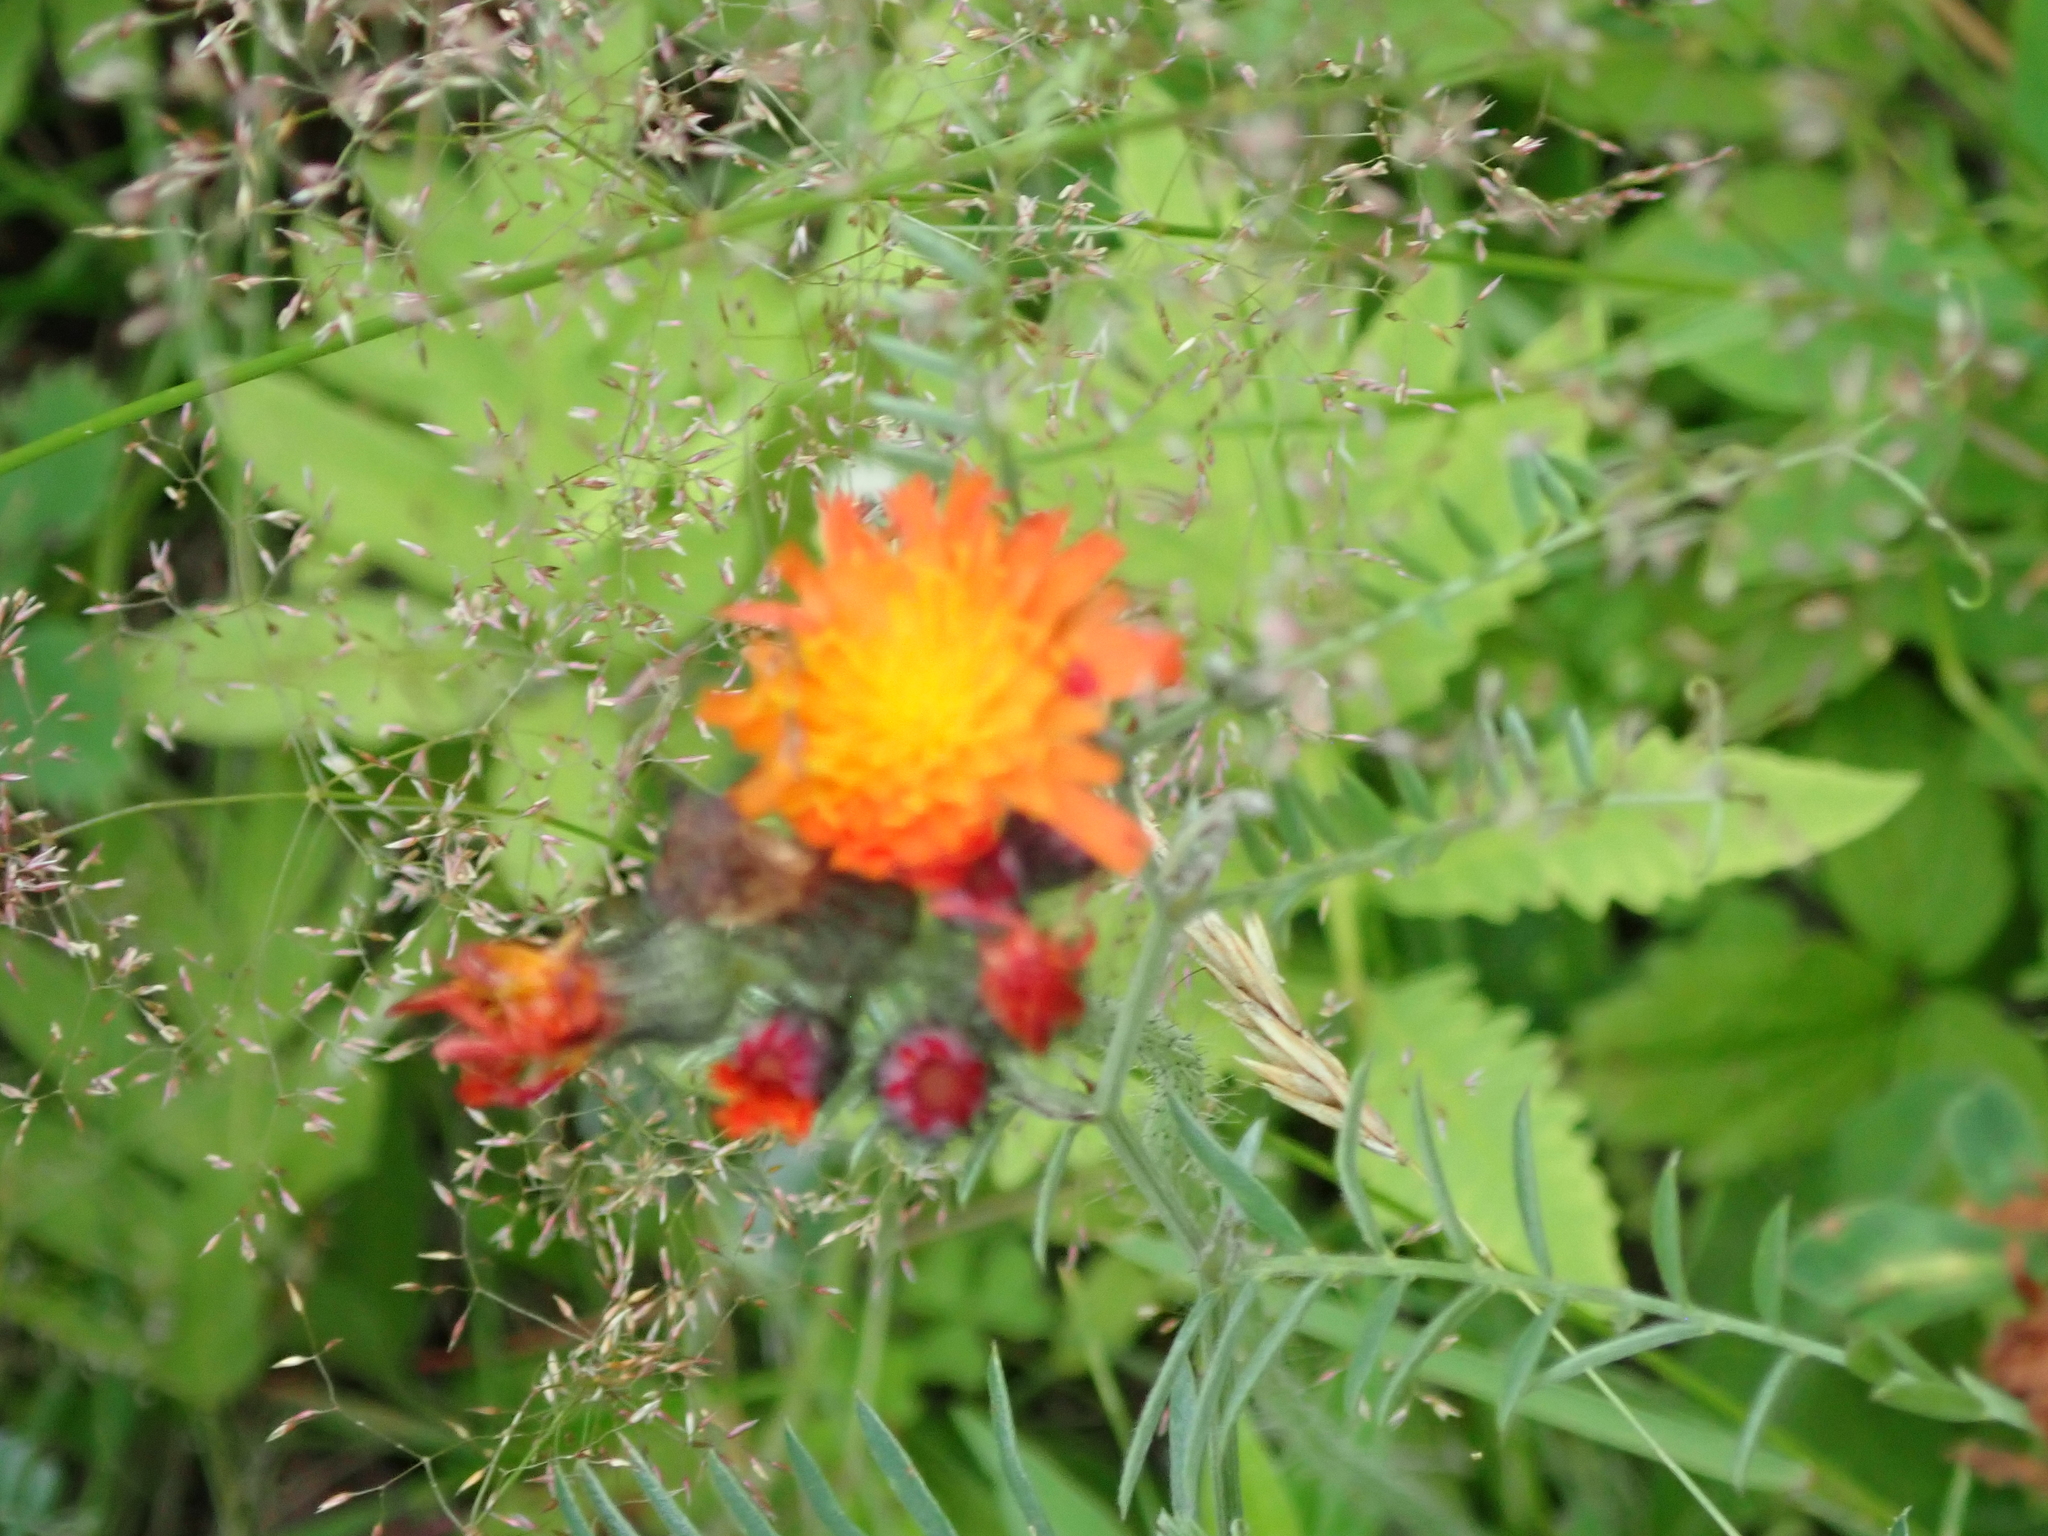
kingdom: Plantae
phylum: Tracheophyta
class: Magnoliopsida
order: Asterales
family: Asteraceae
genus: Pilosella
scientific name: Pilosella aurantiaca
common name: Fox-and-cubs
